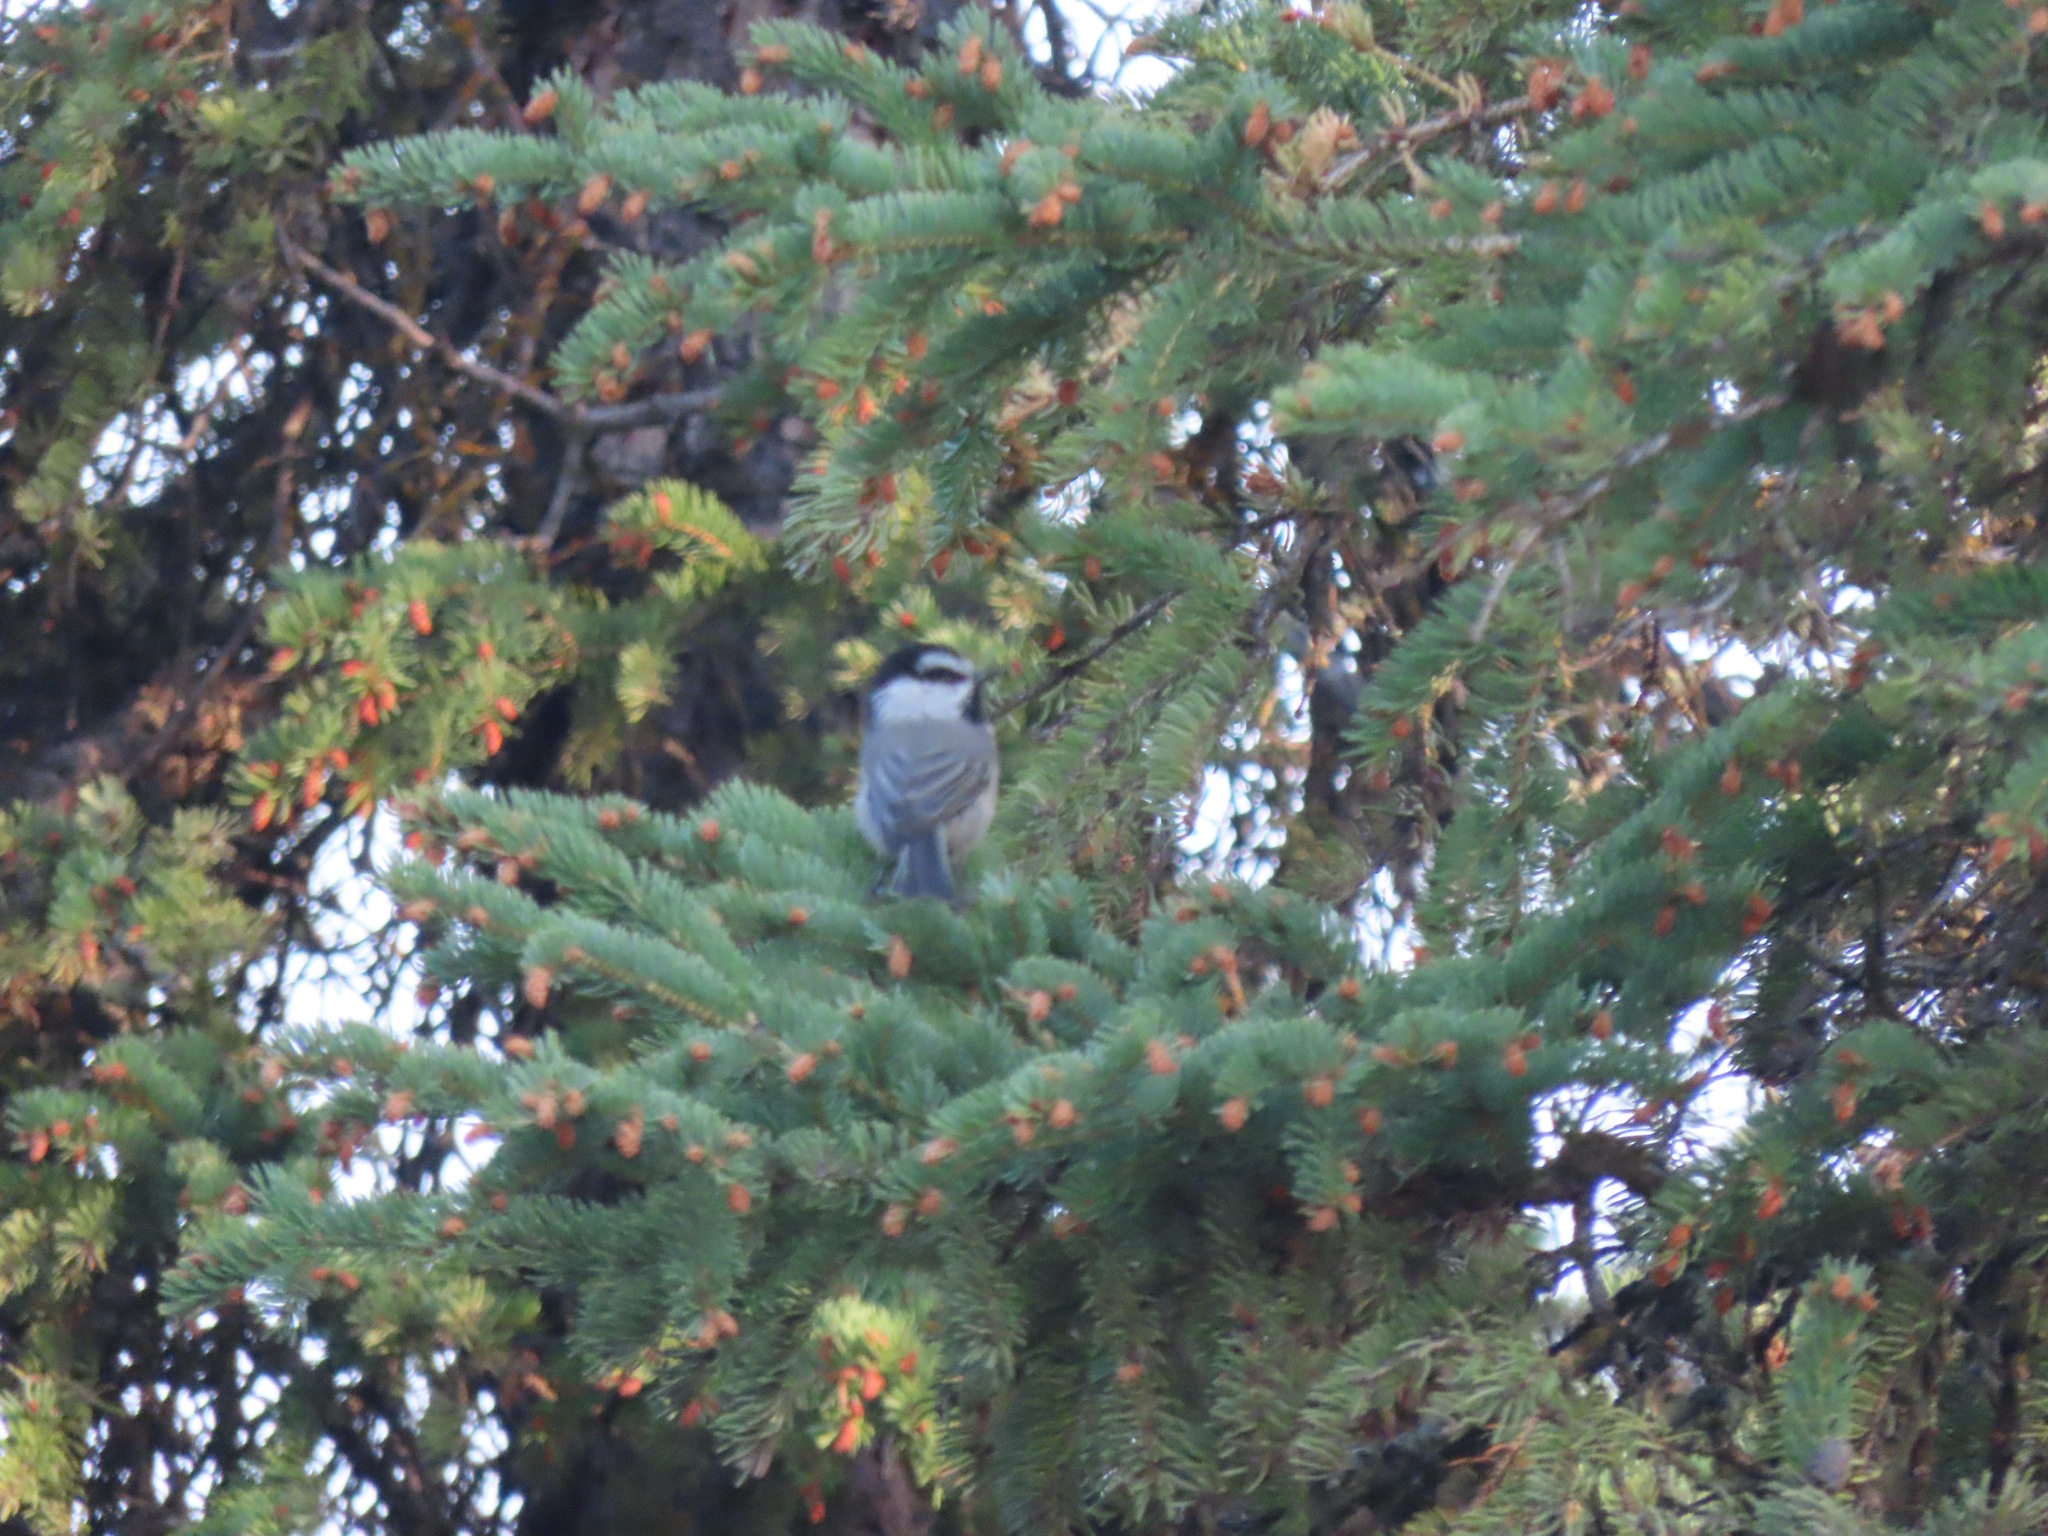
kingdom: Animalia
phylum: Chordata
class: Aves
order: Passeriformes
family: Paridae
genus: Poecile
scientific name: Poecile gambeli
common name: Mountain chickadee
